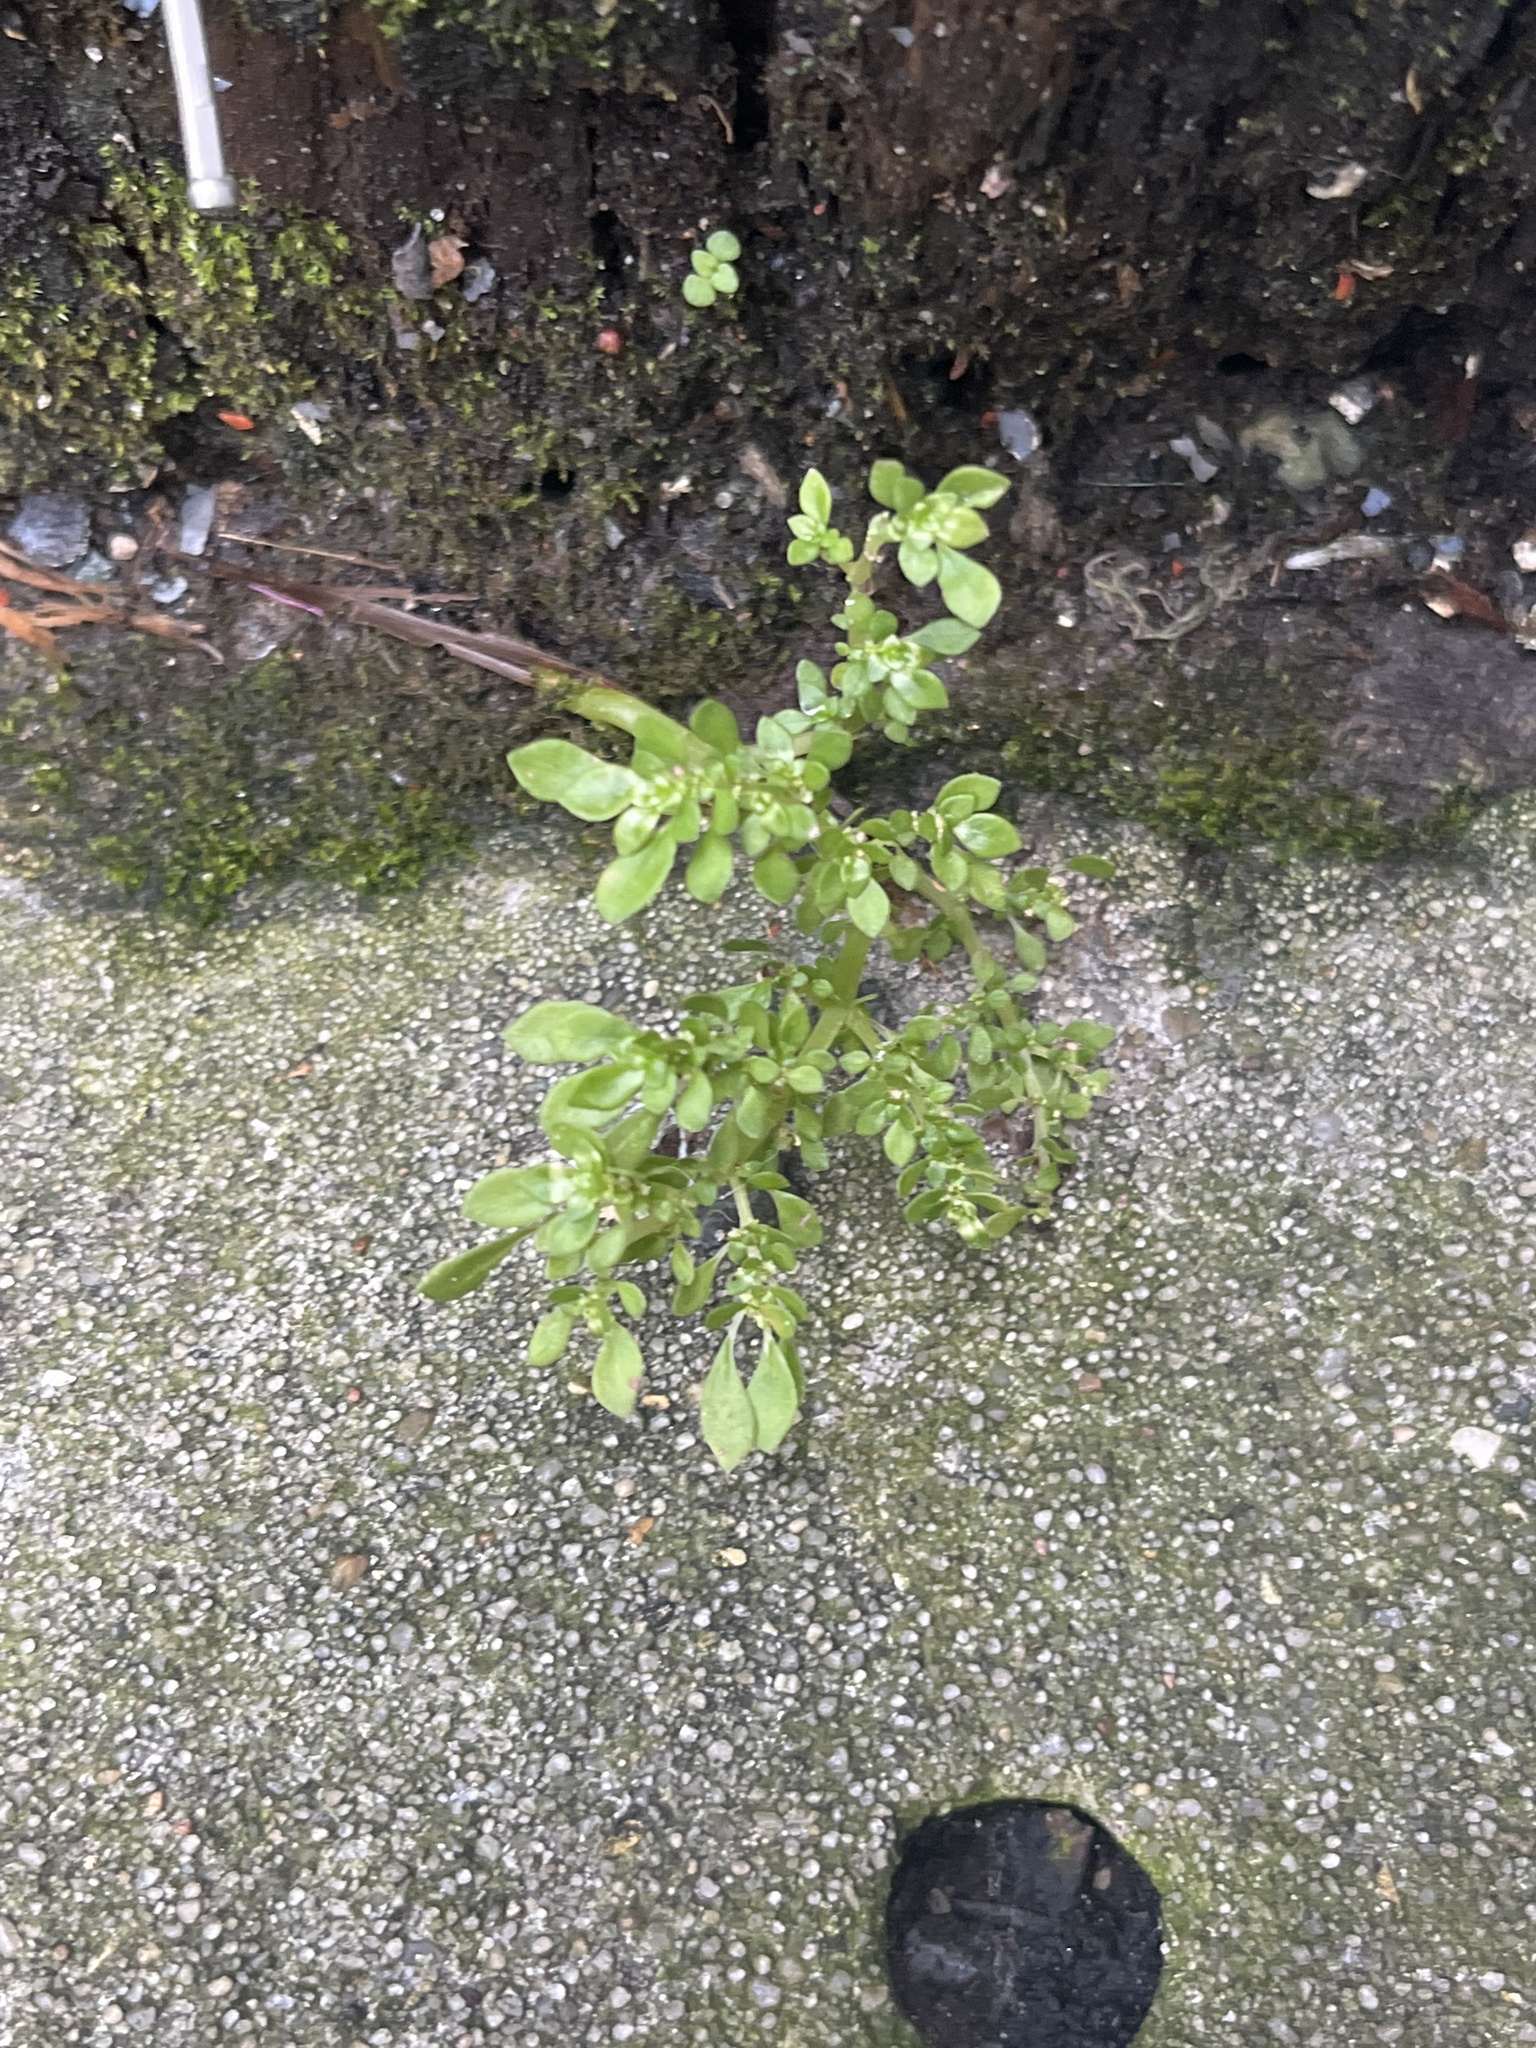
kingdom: Plantae
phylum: Tracheophyta
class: Magnoliopsida
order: Rosales
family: Urticaceae
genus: Pilea
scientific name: Pilea microphylla
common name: Artillery-plant
